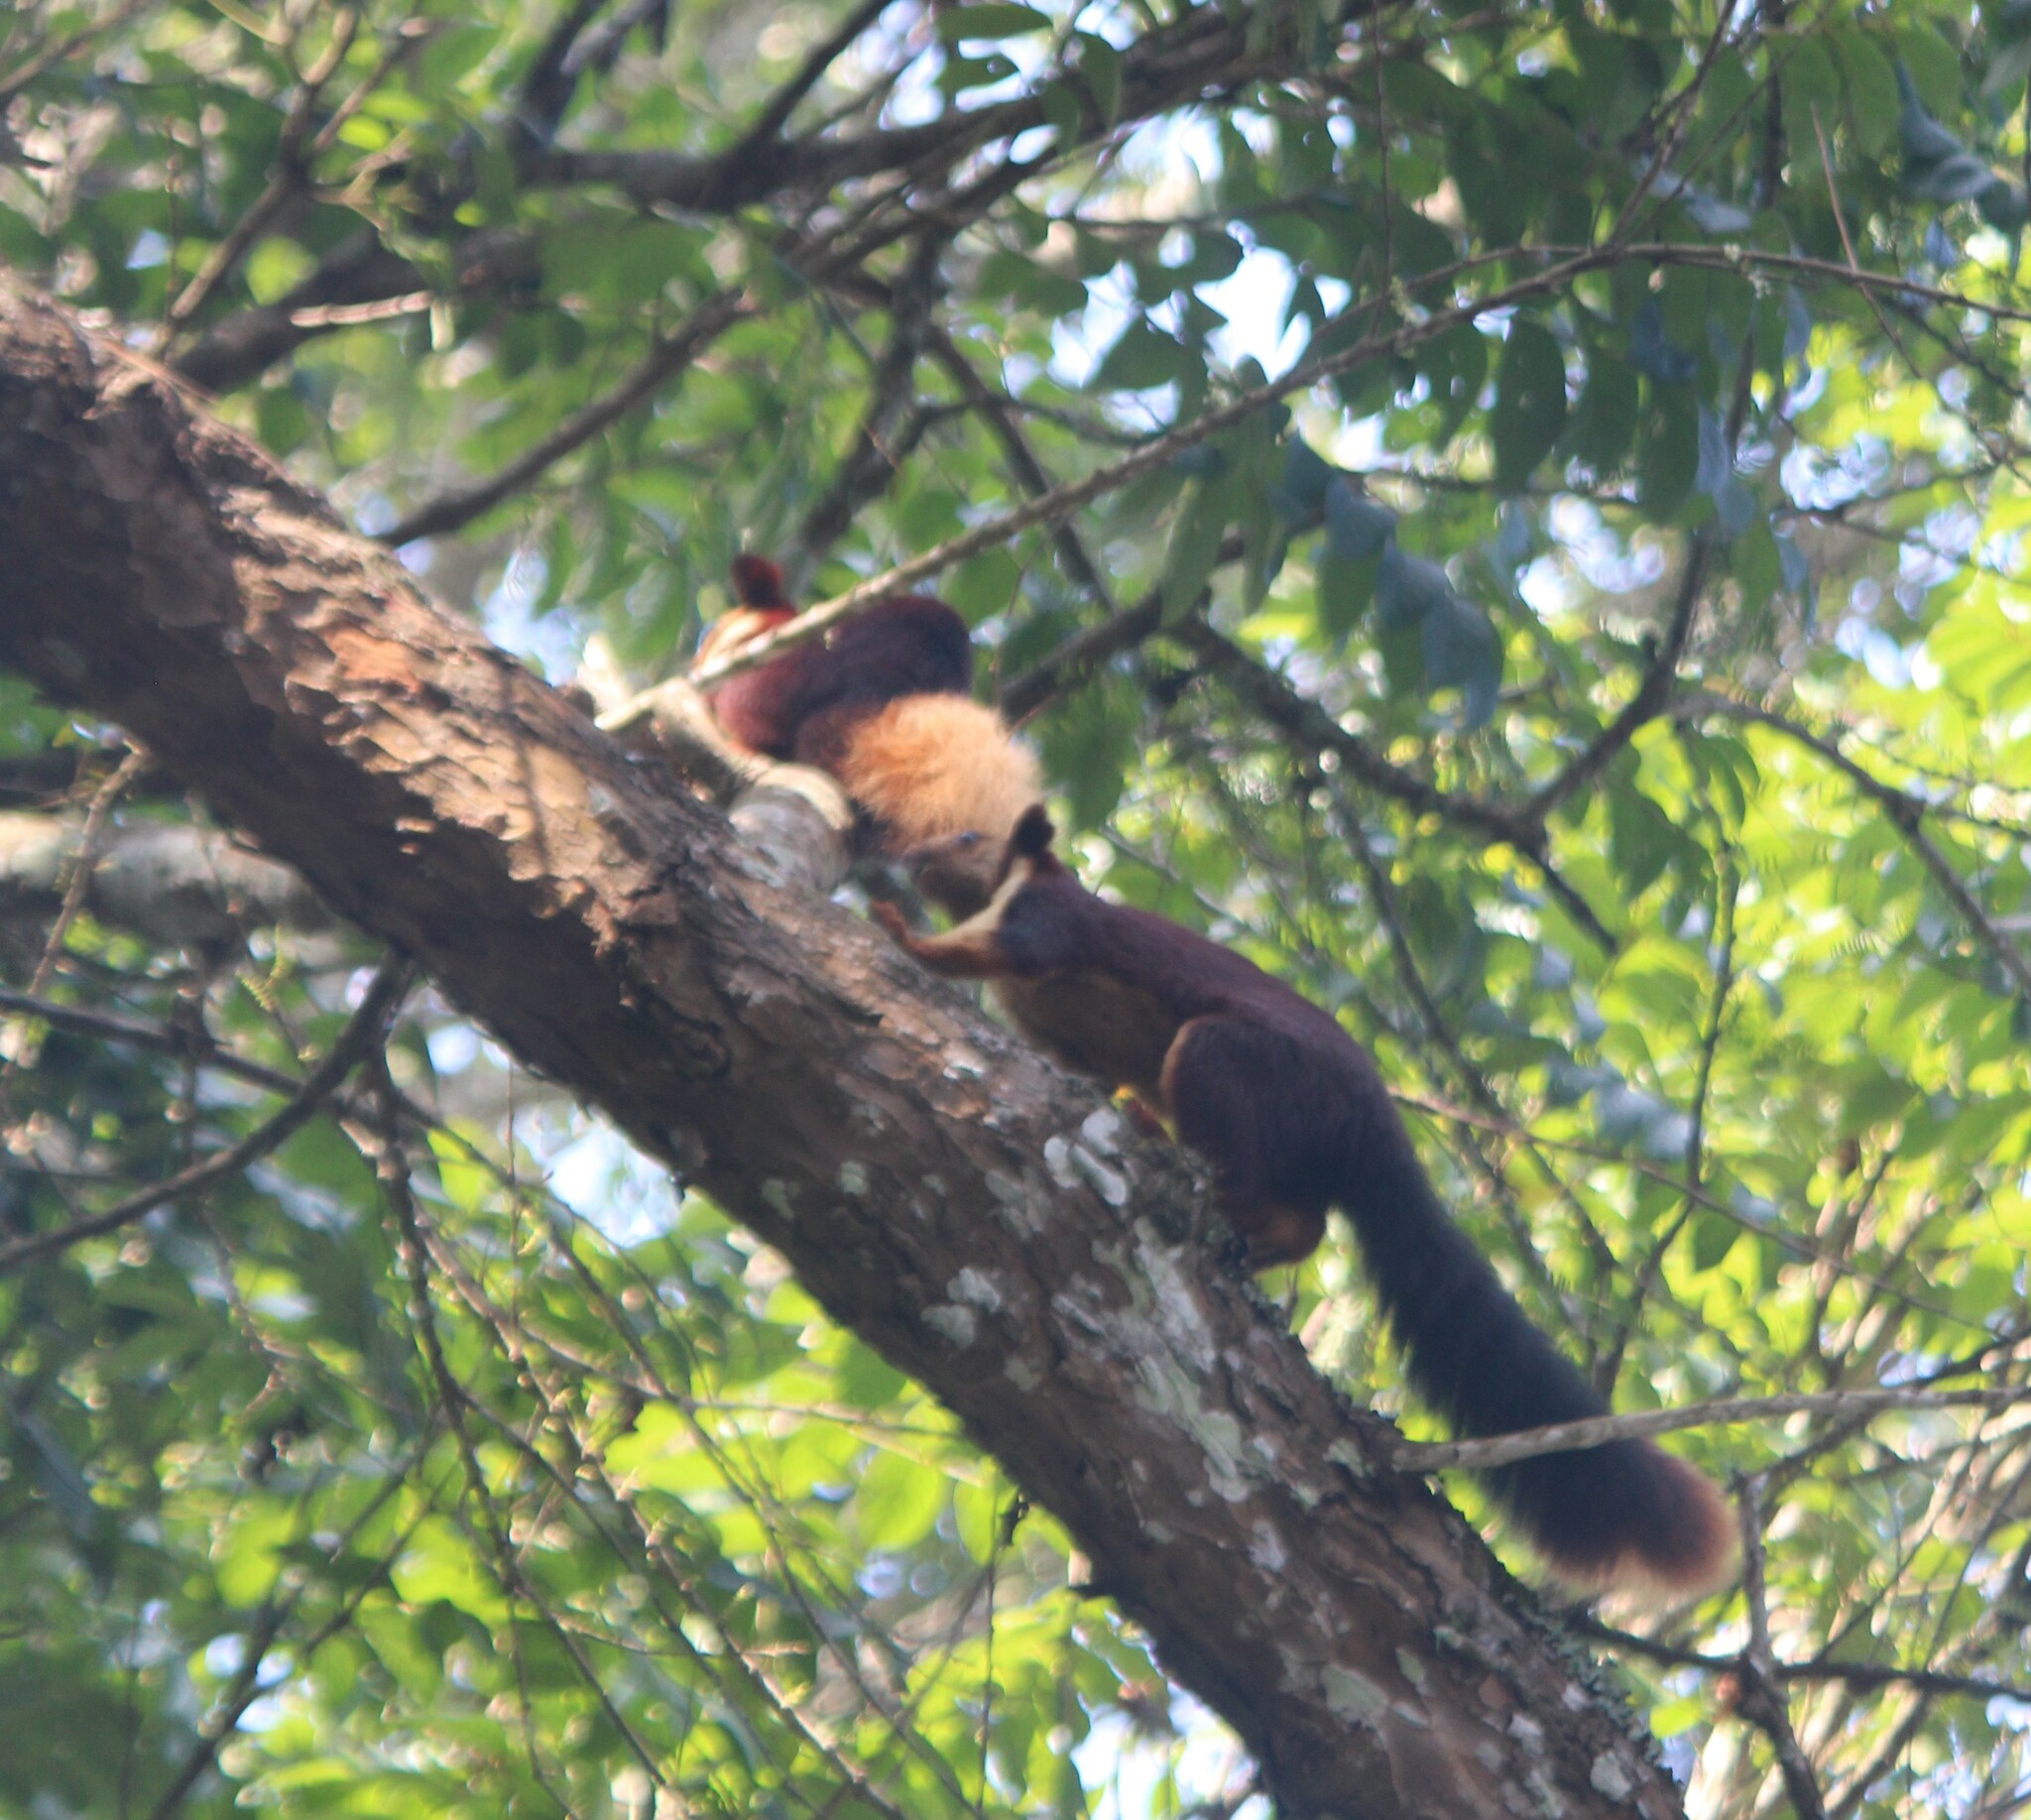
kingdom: Animalia
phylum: Chordata
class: Mammalia
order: Rodentia
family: Sciuridae
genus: Ratufa
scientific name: Ratufa indica
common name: Indian giant squirrel
